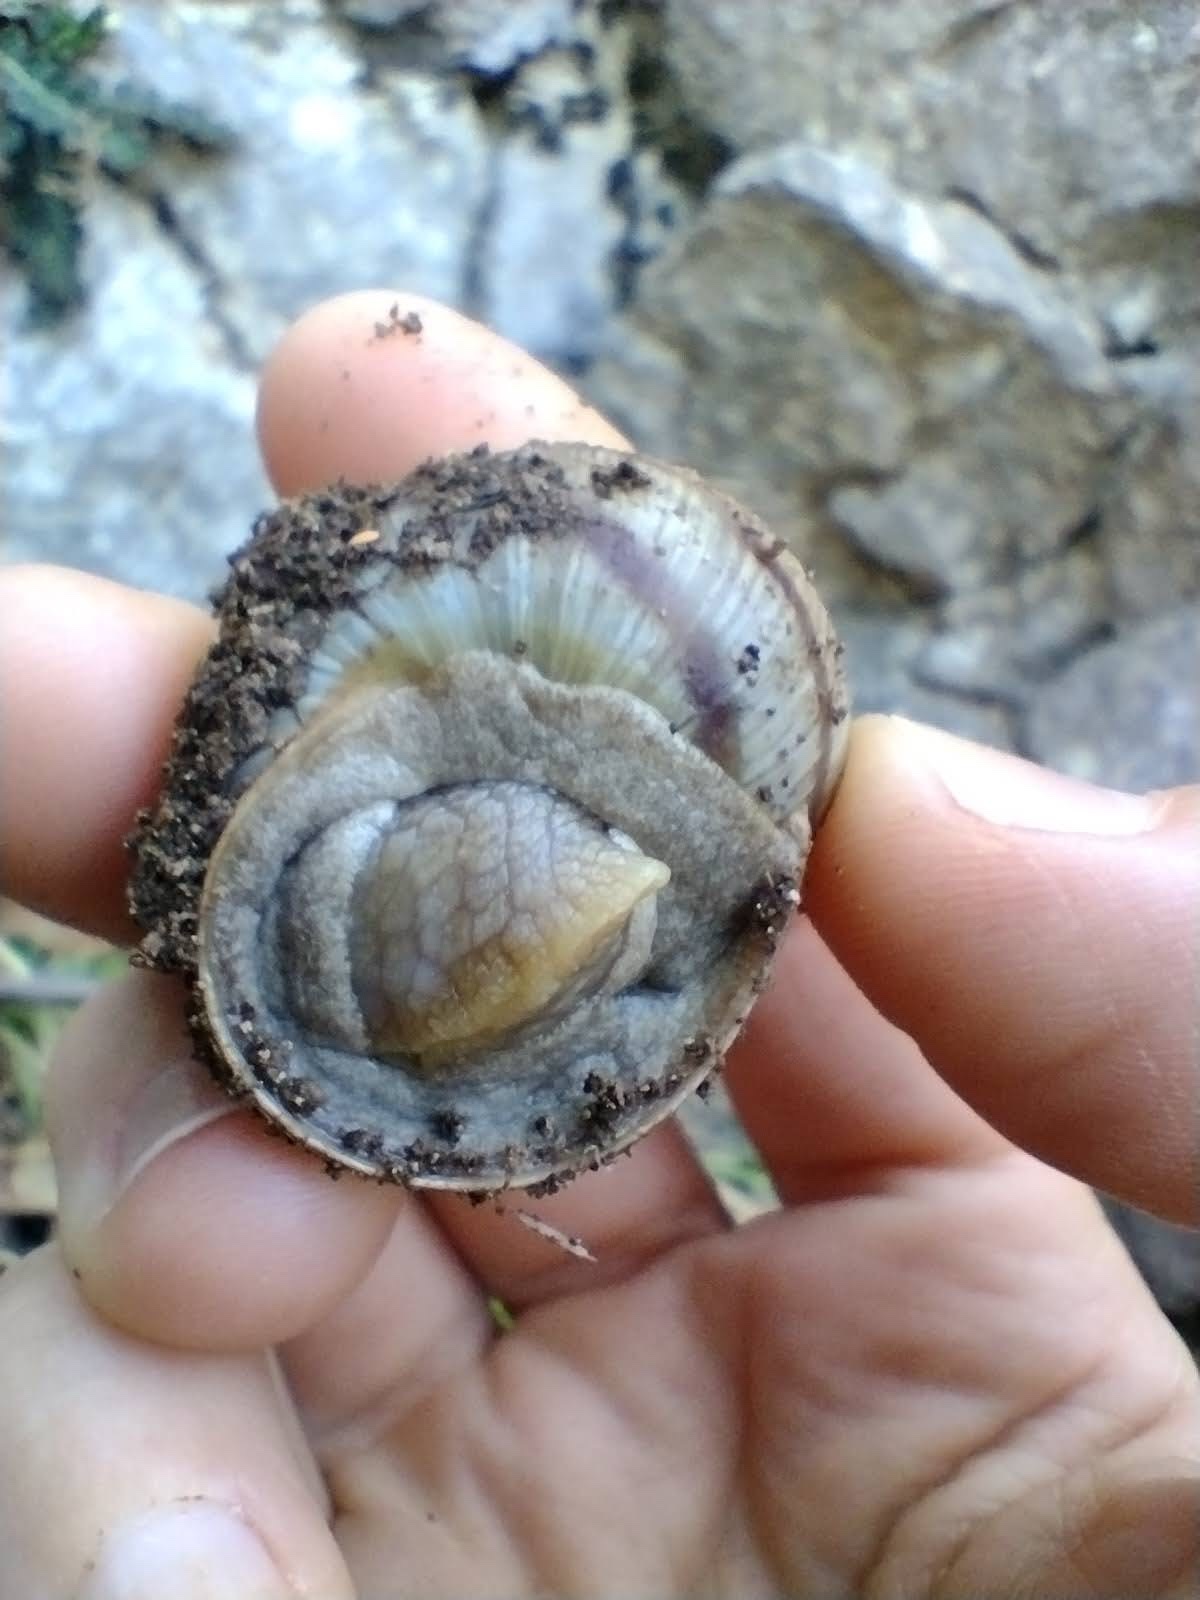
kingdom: Animalia
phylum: Mollusca
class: Gastropoda
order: Stylommatophora
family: Helicidae
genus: Helix
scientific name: Helix figulina
